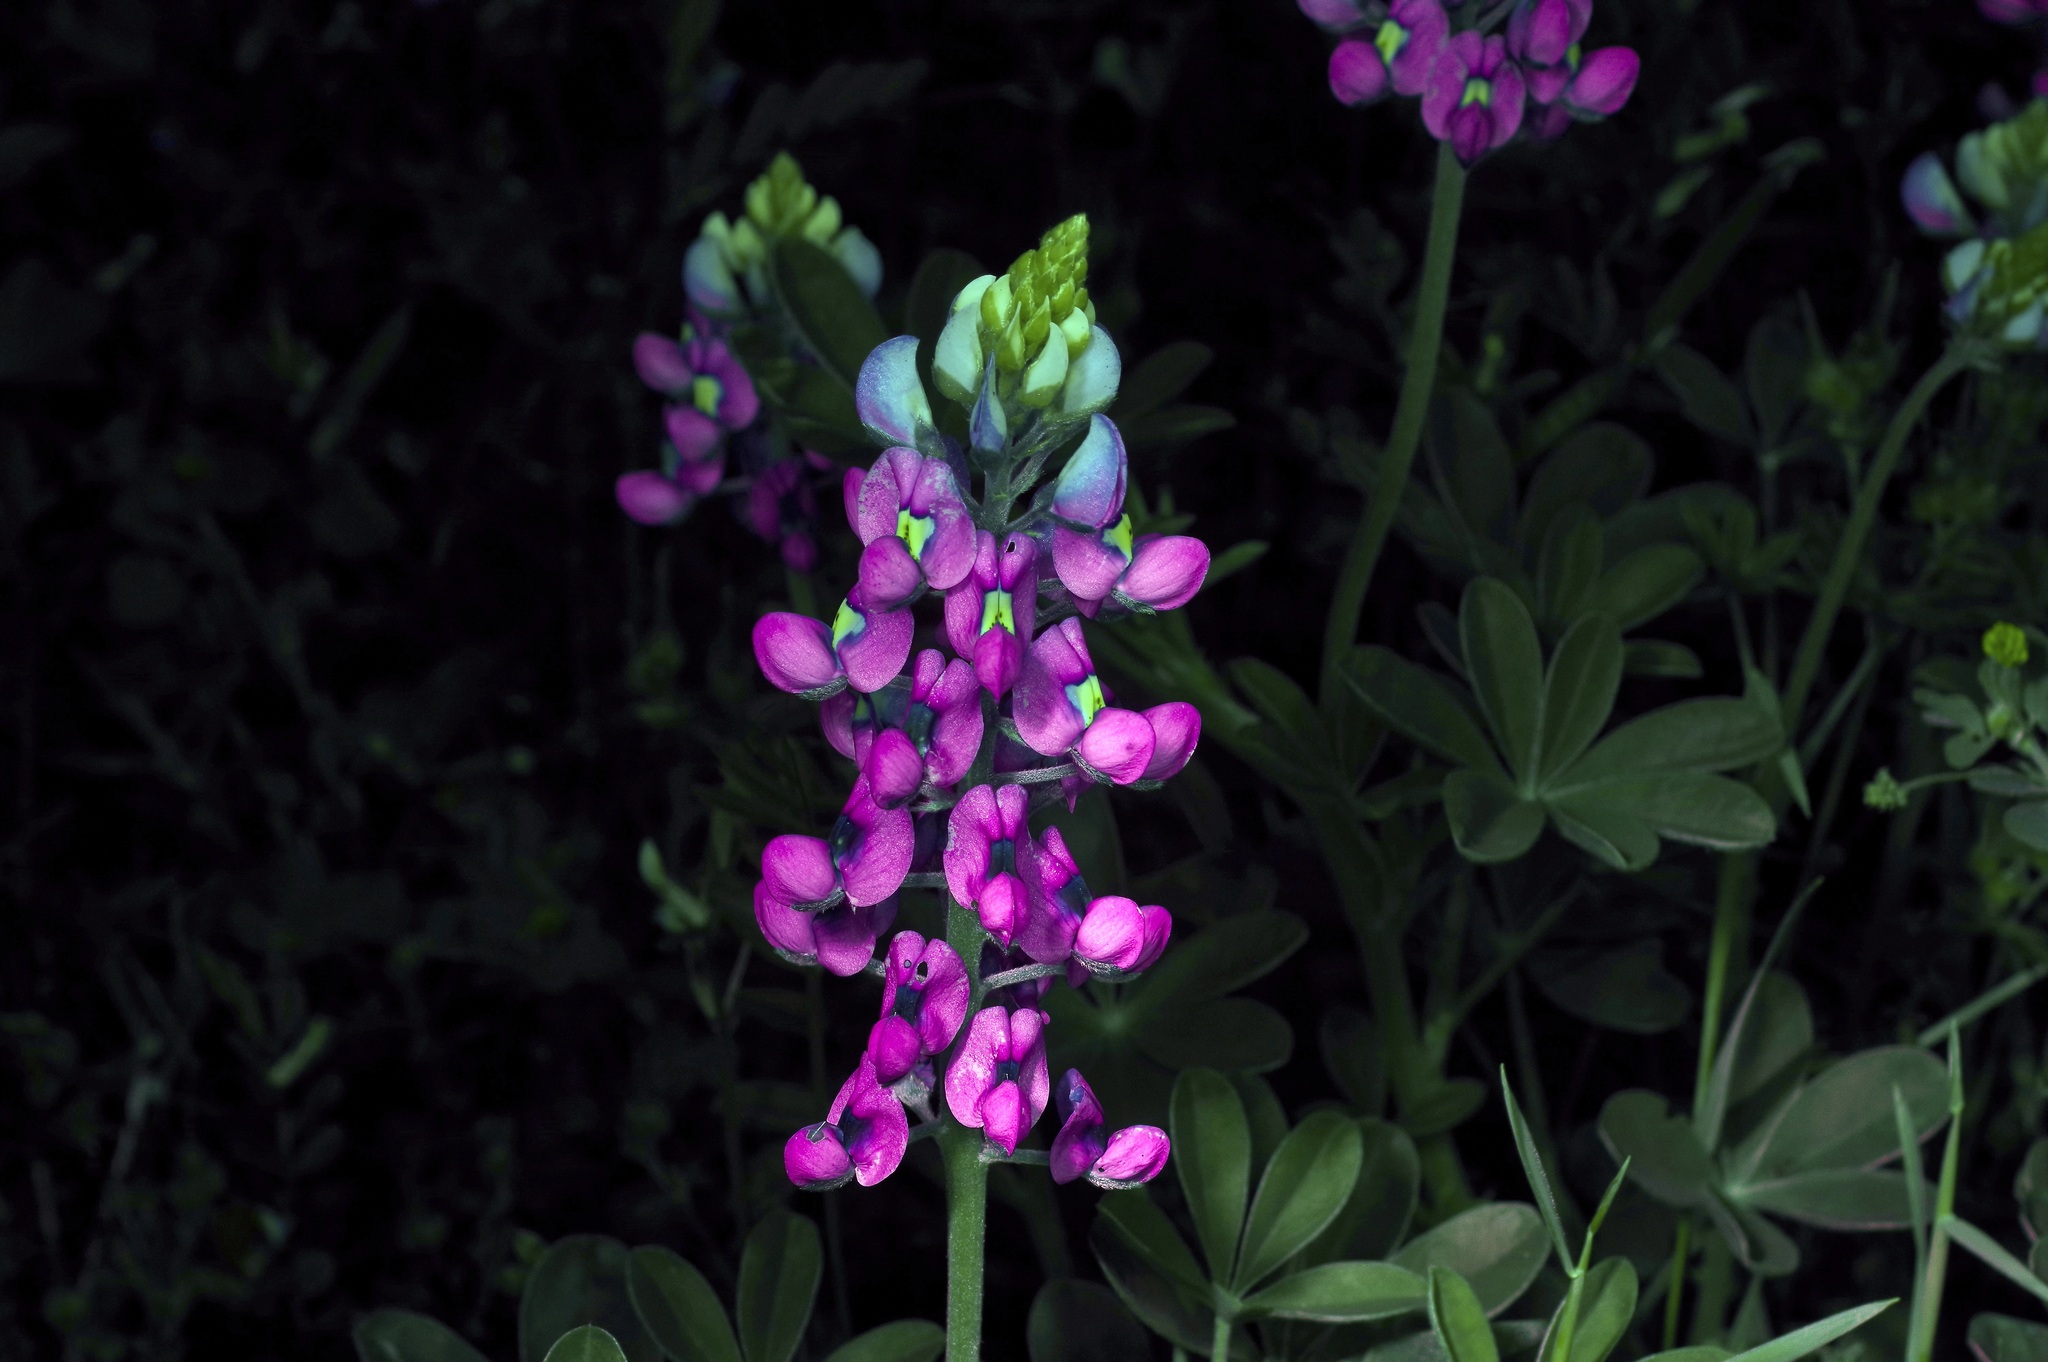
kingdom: Plantae
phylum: Tracheophyta
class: Magnoliopsida
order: Fabales
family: Fabaceae
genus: Lupinus
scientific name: Lupinus texensis
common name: Texas bluebonnet
